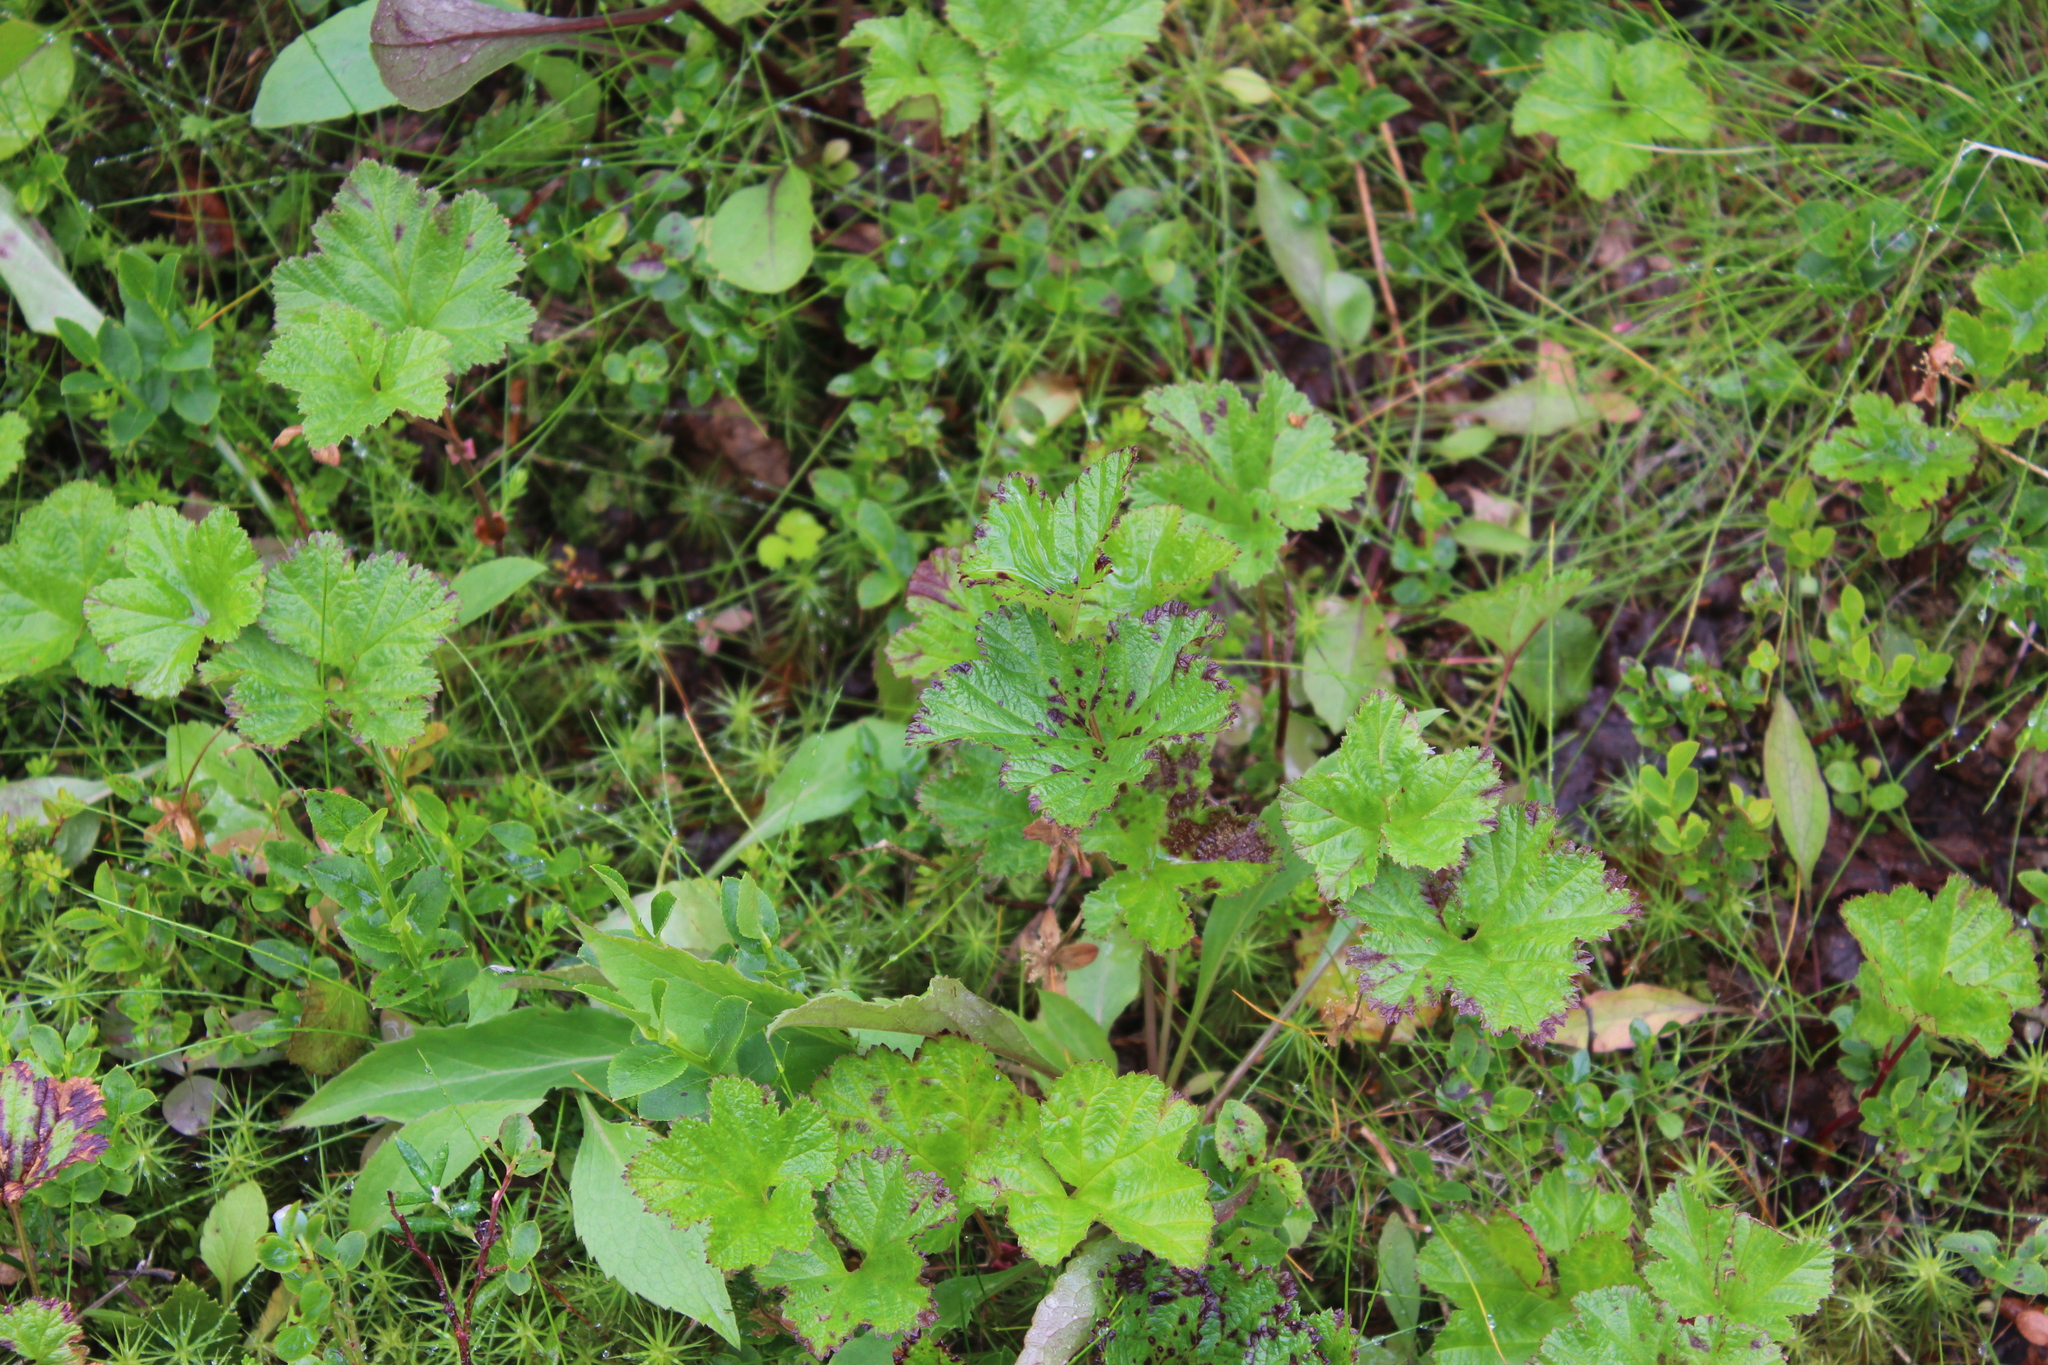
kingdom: Plantae
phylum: Tracheophyta
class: Magnoliopsida
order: Rosales
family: Rosaceae
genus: Rubus
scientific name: Rubus chamaemorus
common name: Cloudberry
